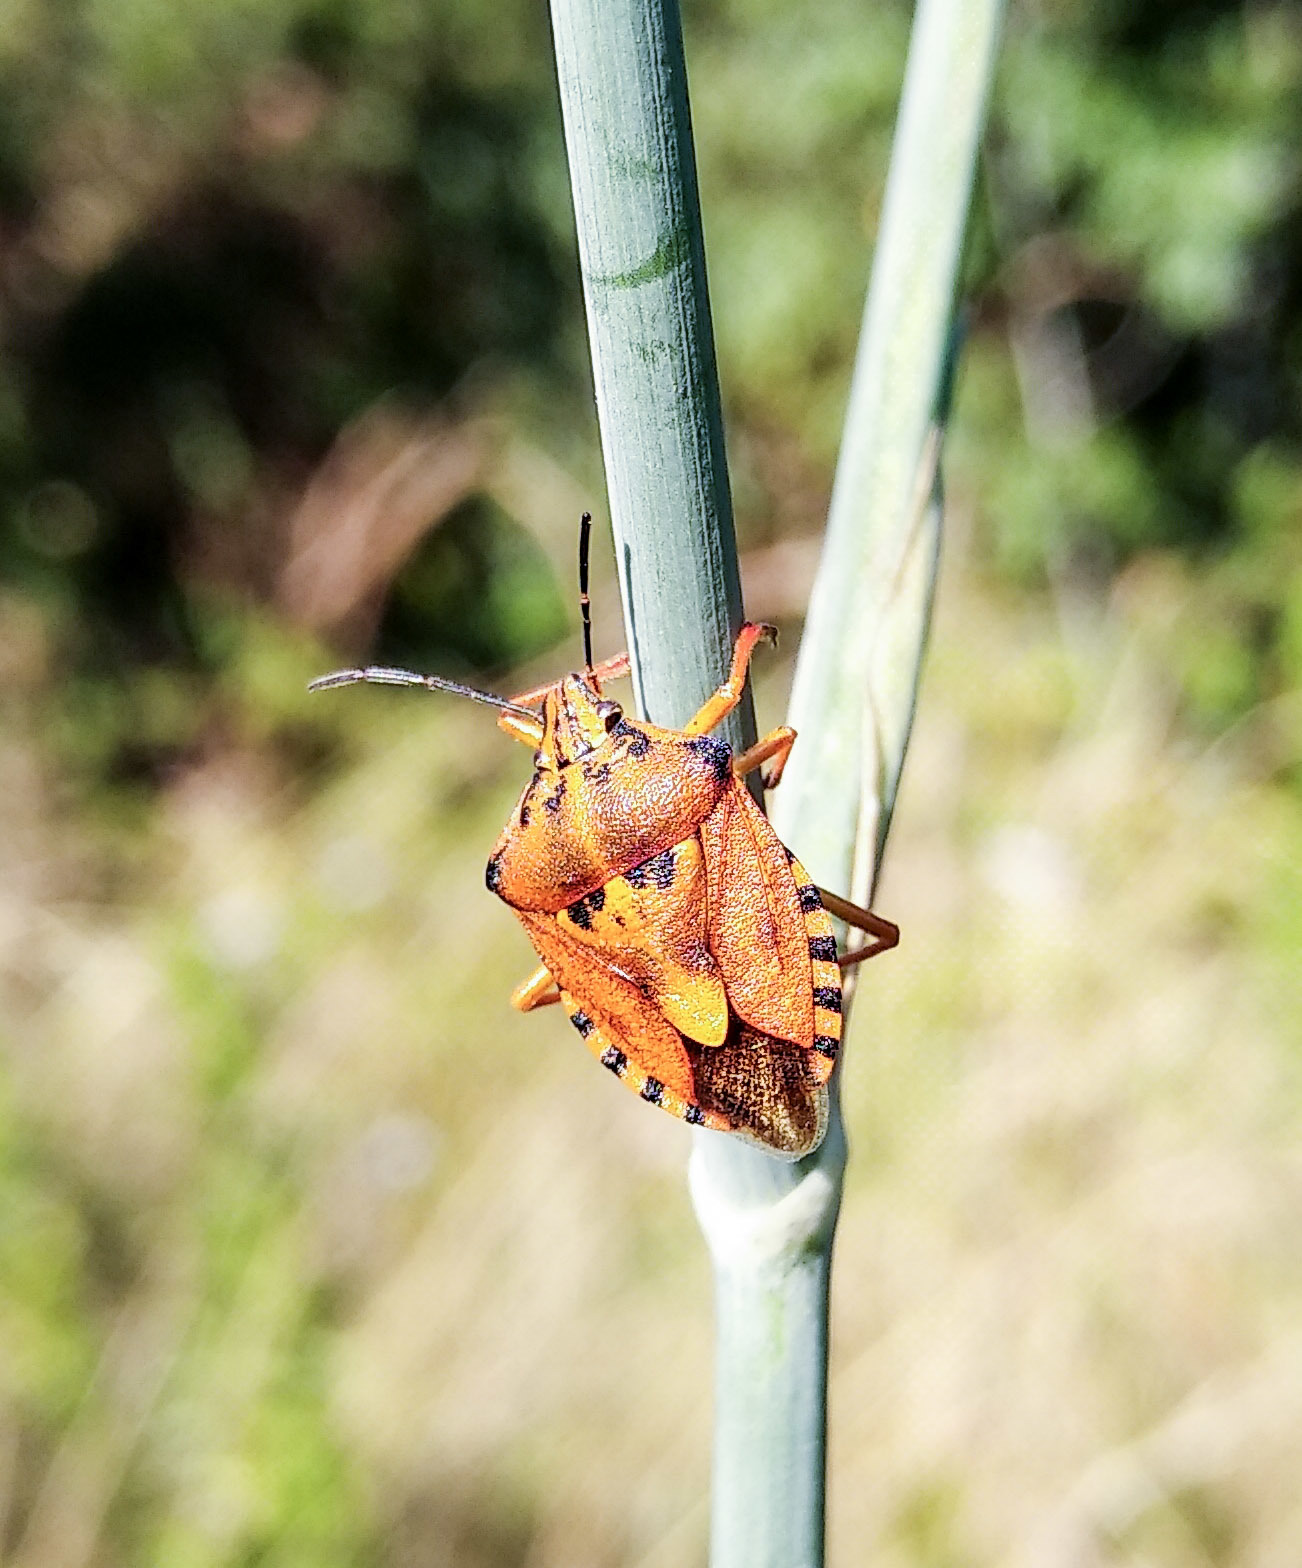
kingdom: Animalia
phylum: Arthropoda
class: Insecta
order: Hemiptera
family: Pentatomidae
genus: Carpocoris
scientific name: Carpocoris purpureipennis
